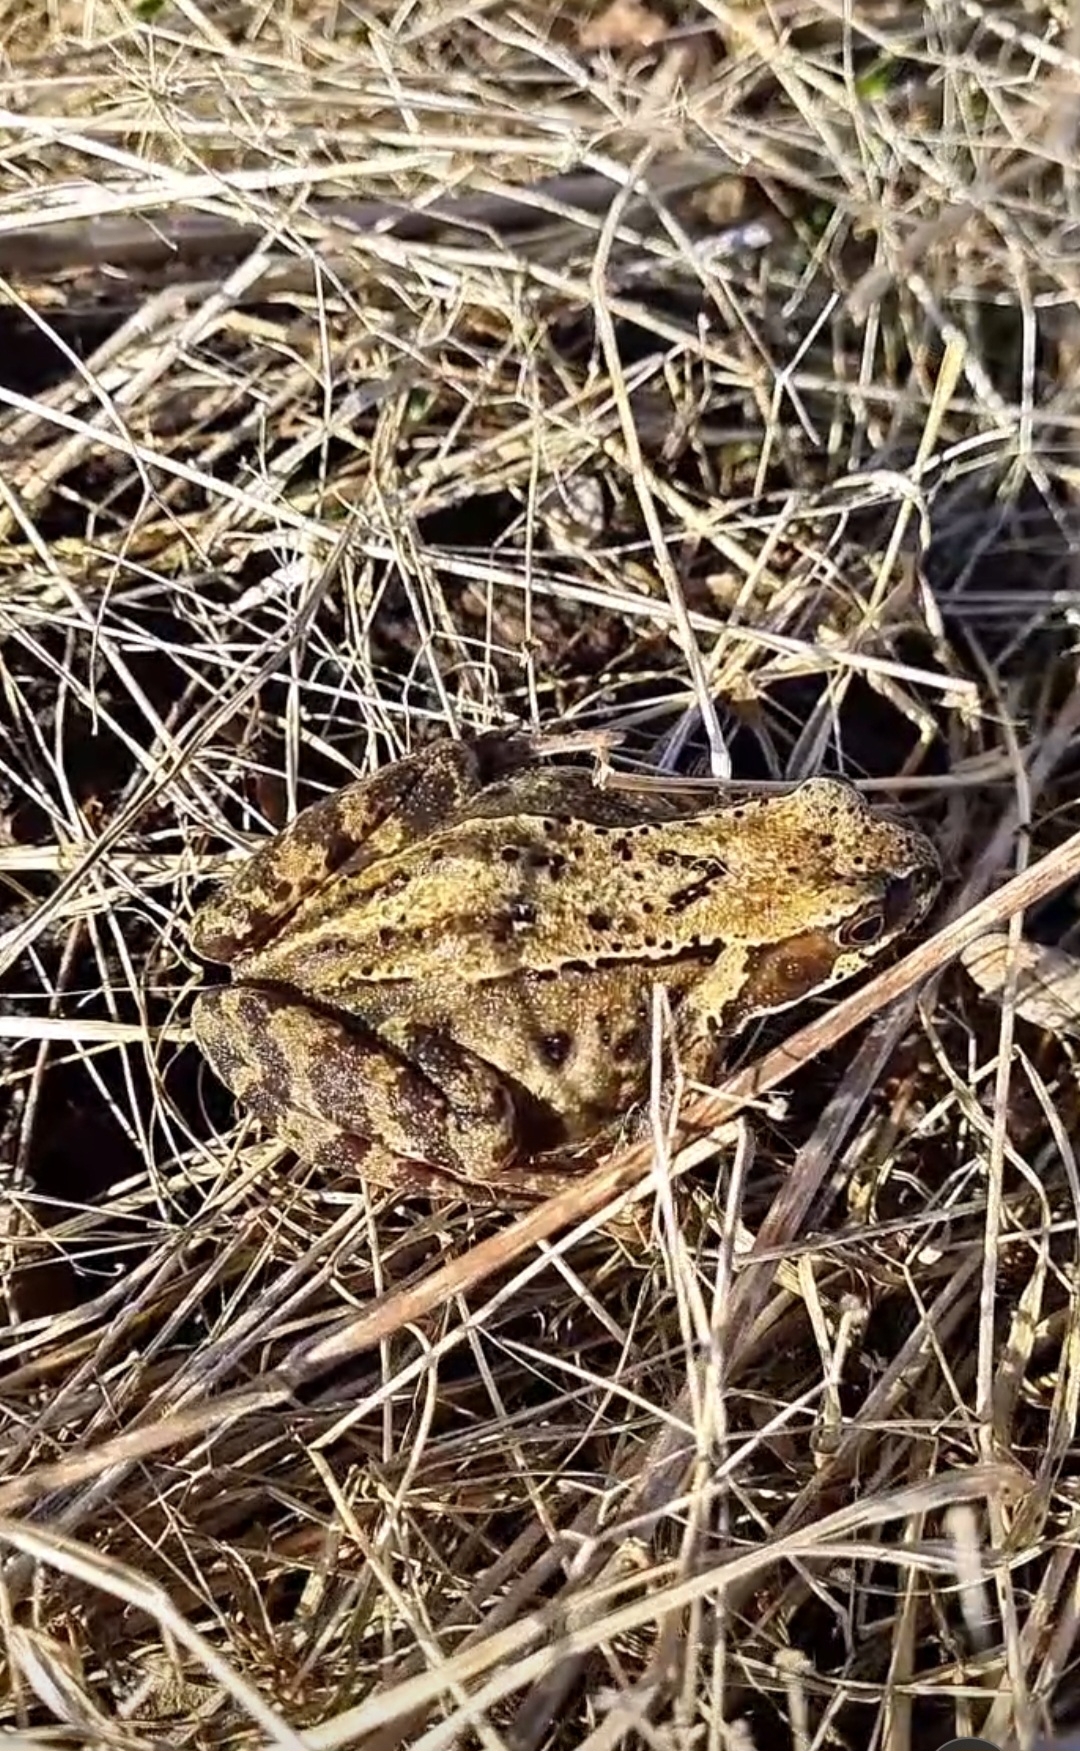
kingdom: Animalia
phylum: Chordata
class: Amphibia
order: Anura
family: Ranidae
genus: Rana
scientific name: Rana temporaria
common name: Common frog
